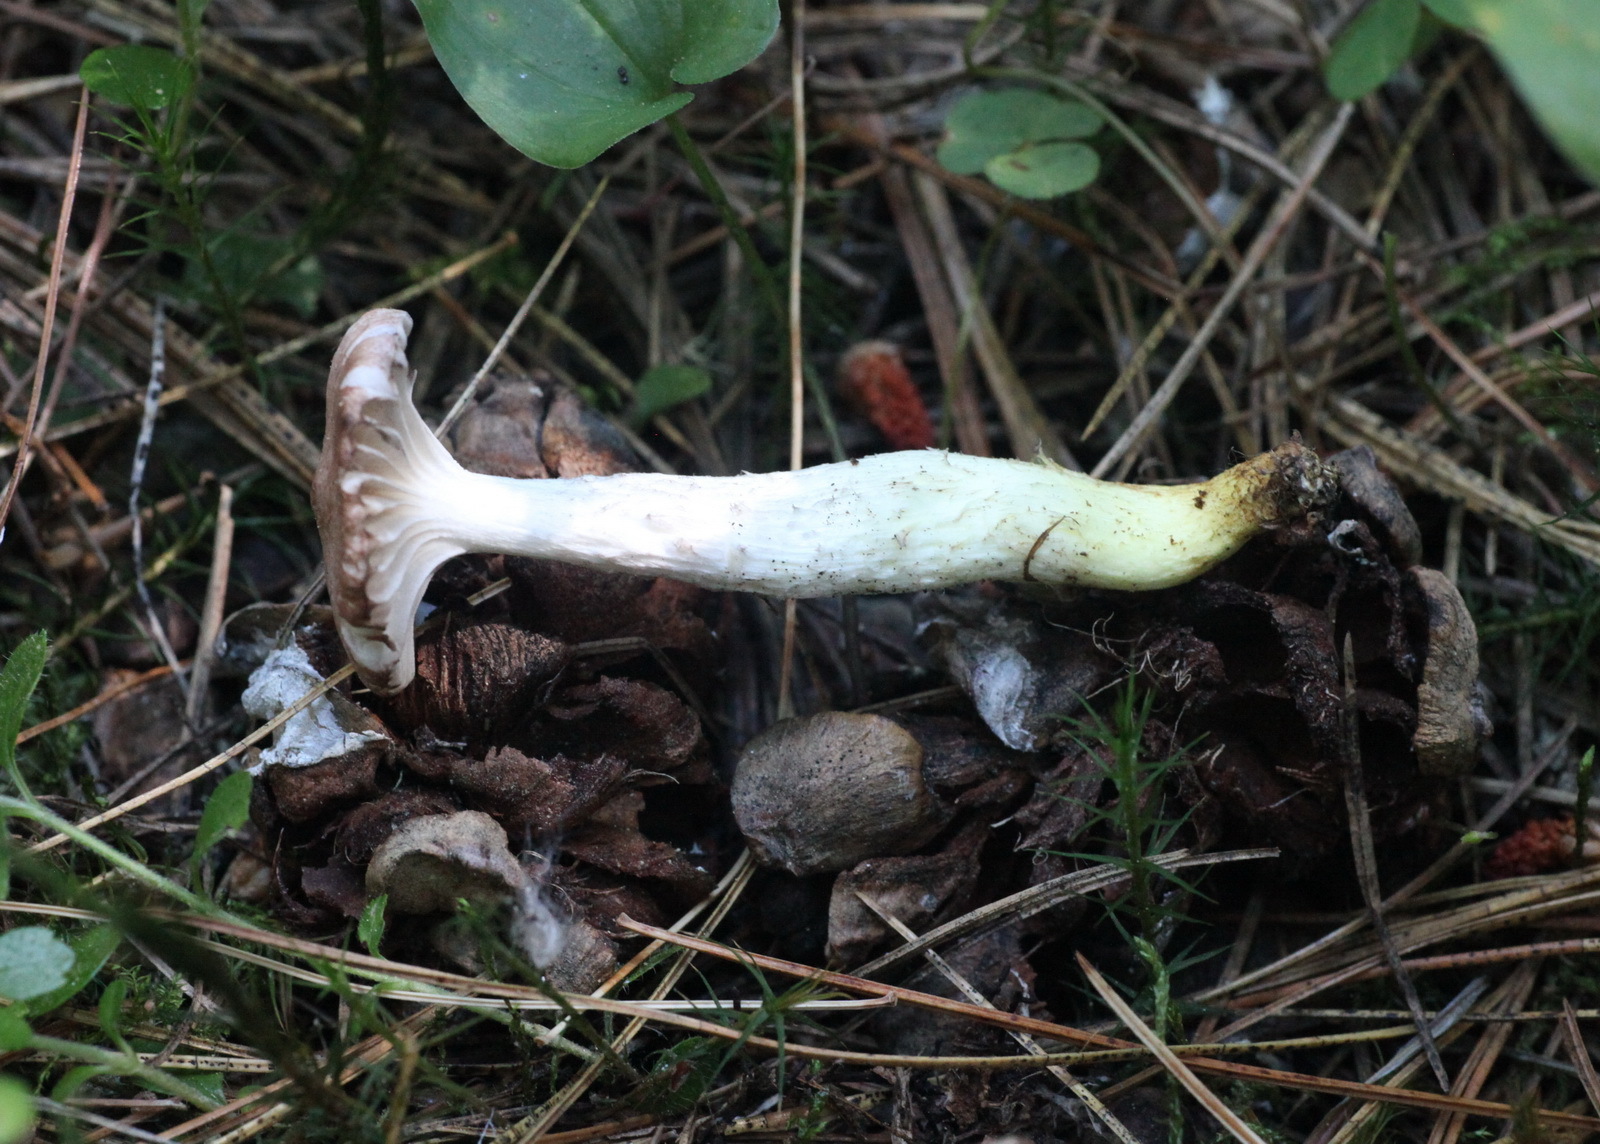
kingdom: Fungi
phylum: Basidiomycota
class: Agaricomycetes
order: Boletales
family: Gomphidiaceae
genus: Gomphidius
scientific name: Gomphidius flavipes
